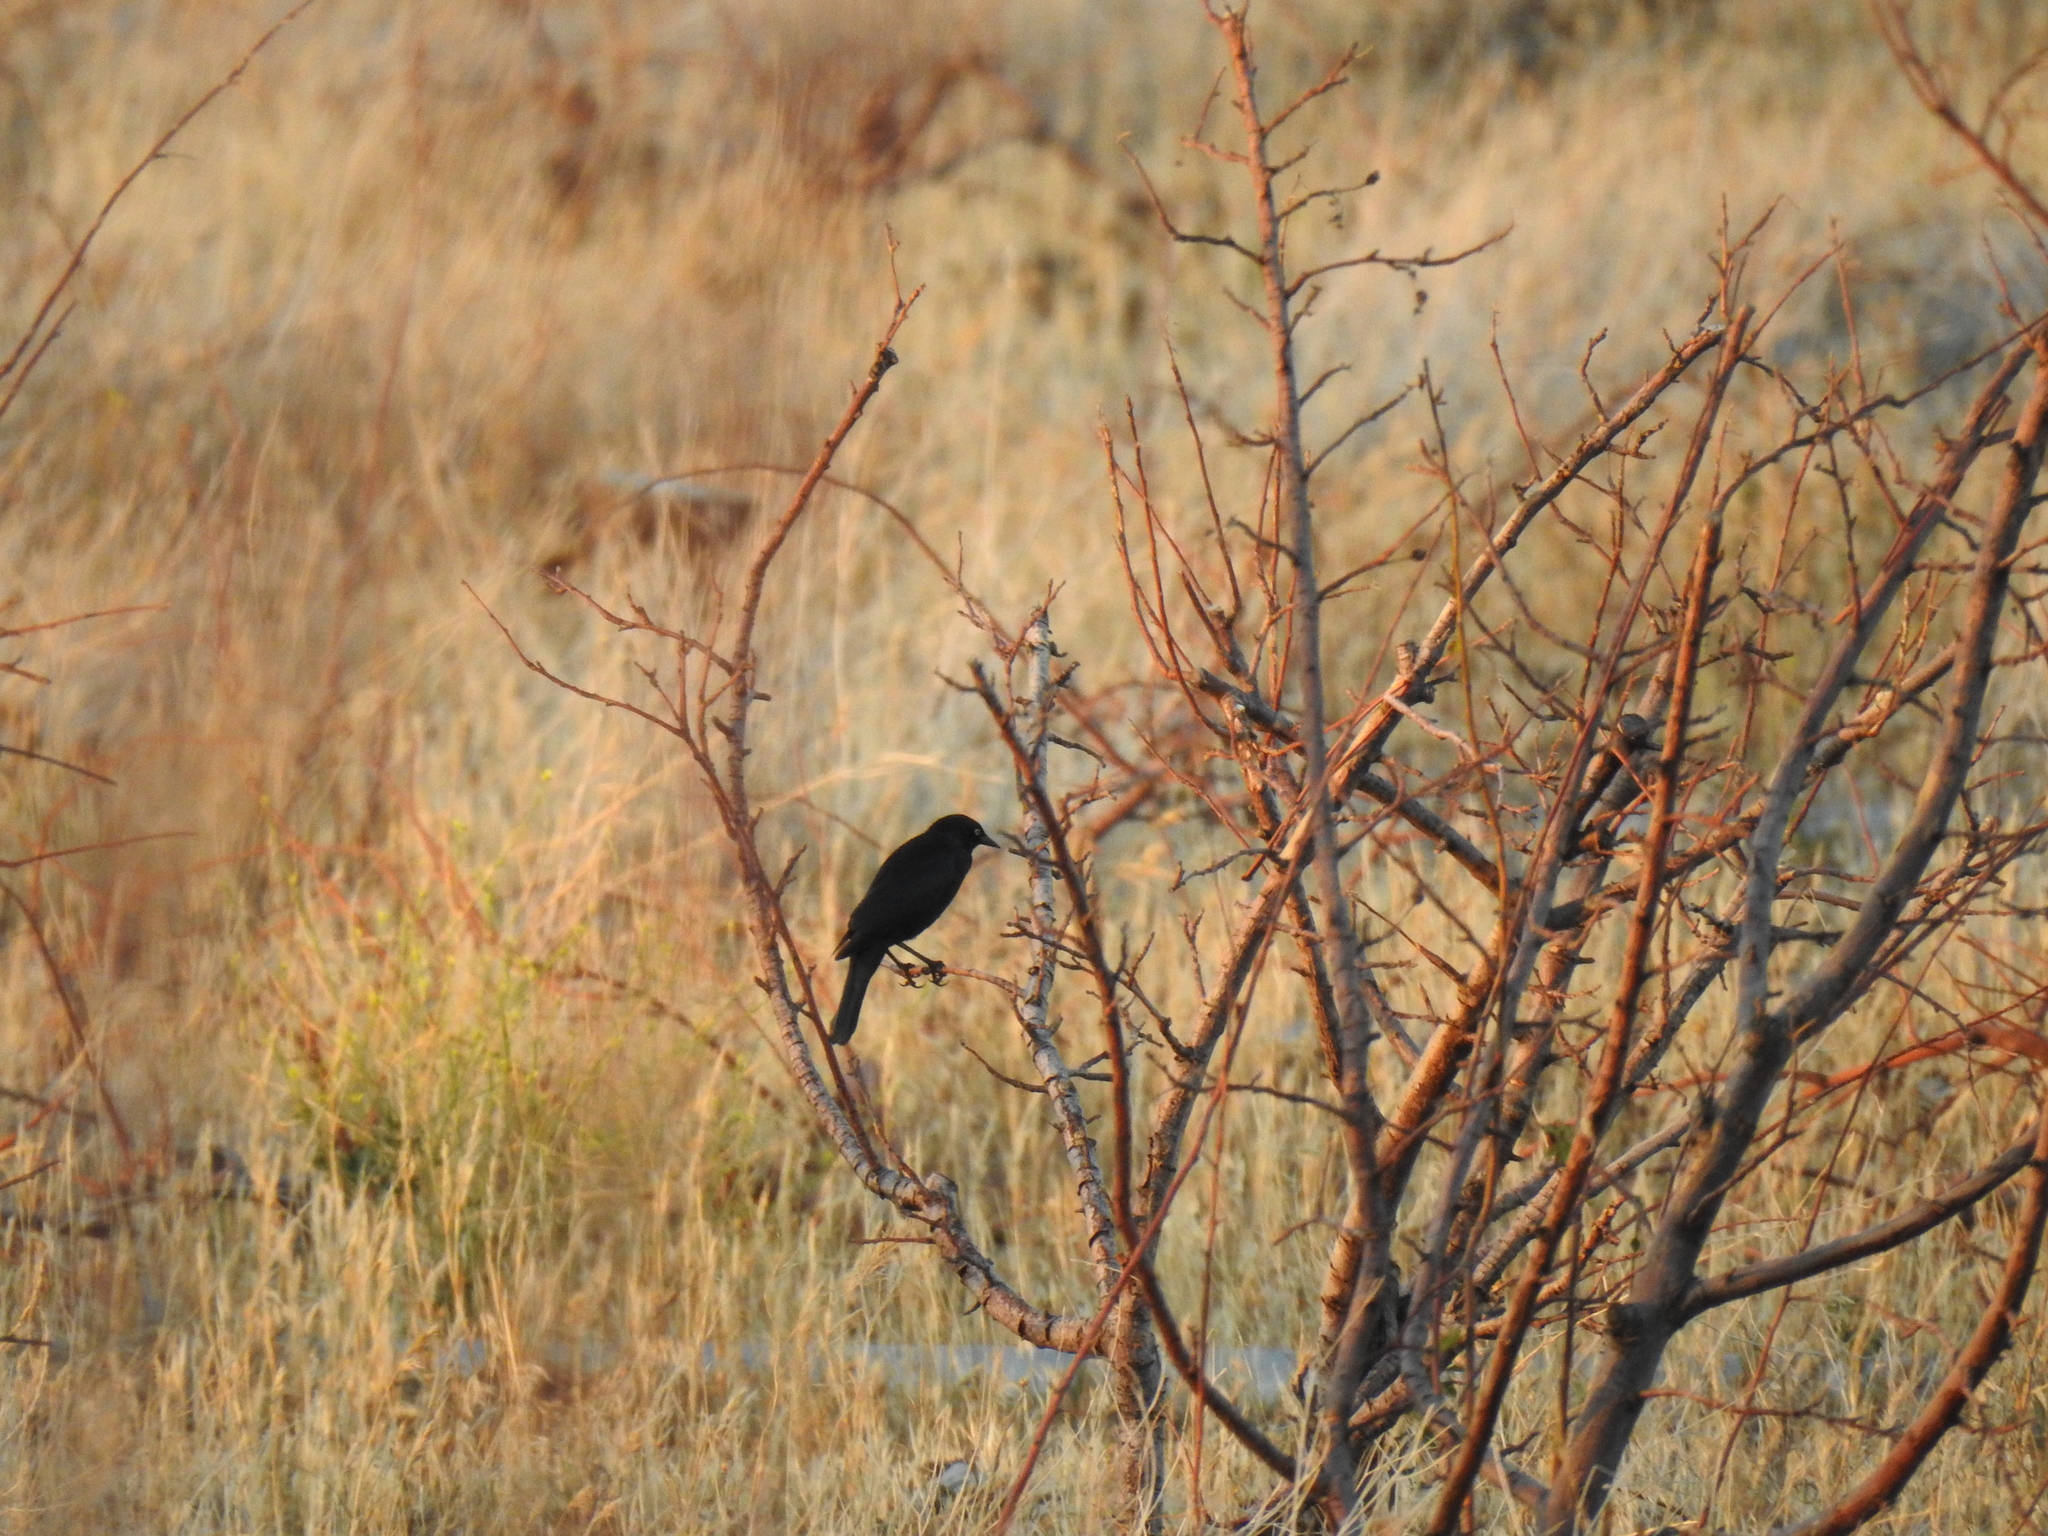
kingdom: Animalia
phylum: Chordata
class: Aves
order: Passeriformes
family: Icteridae
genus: Euphagus
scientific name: Euphagus cyanocephalus
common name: Brewer's blackbird
